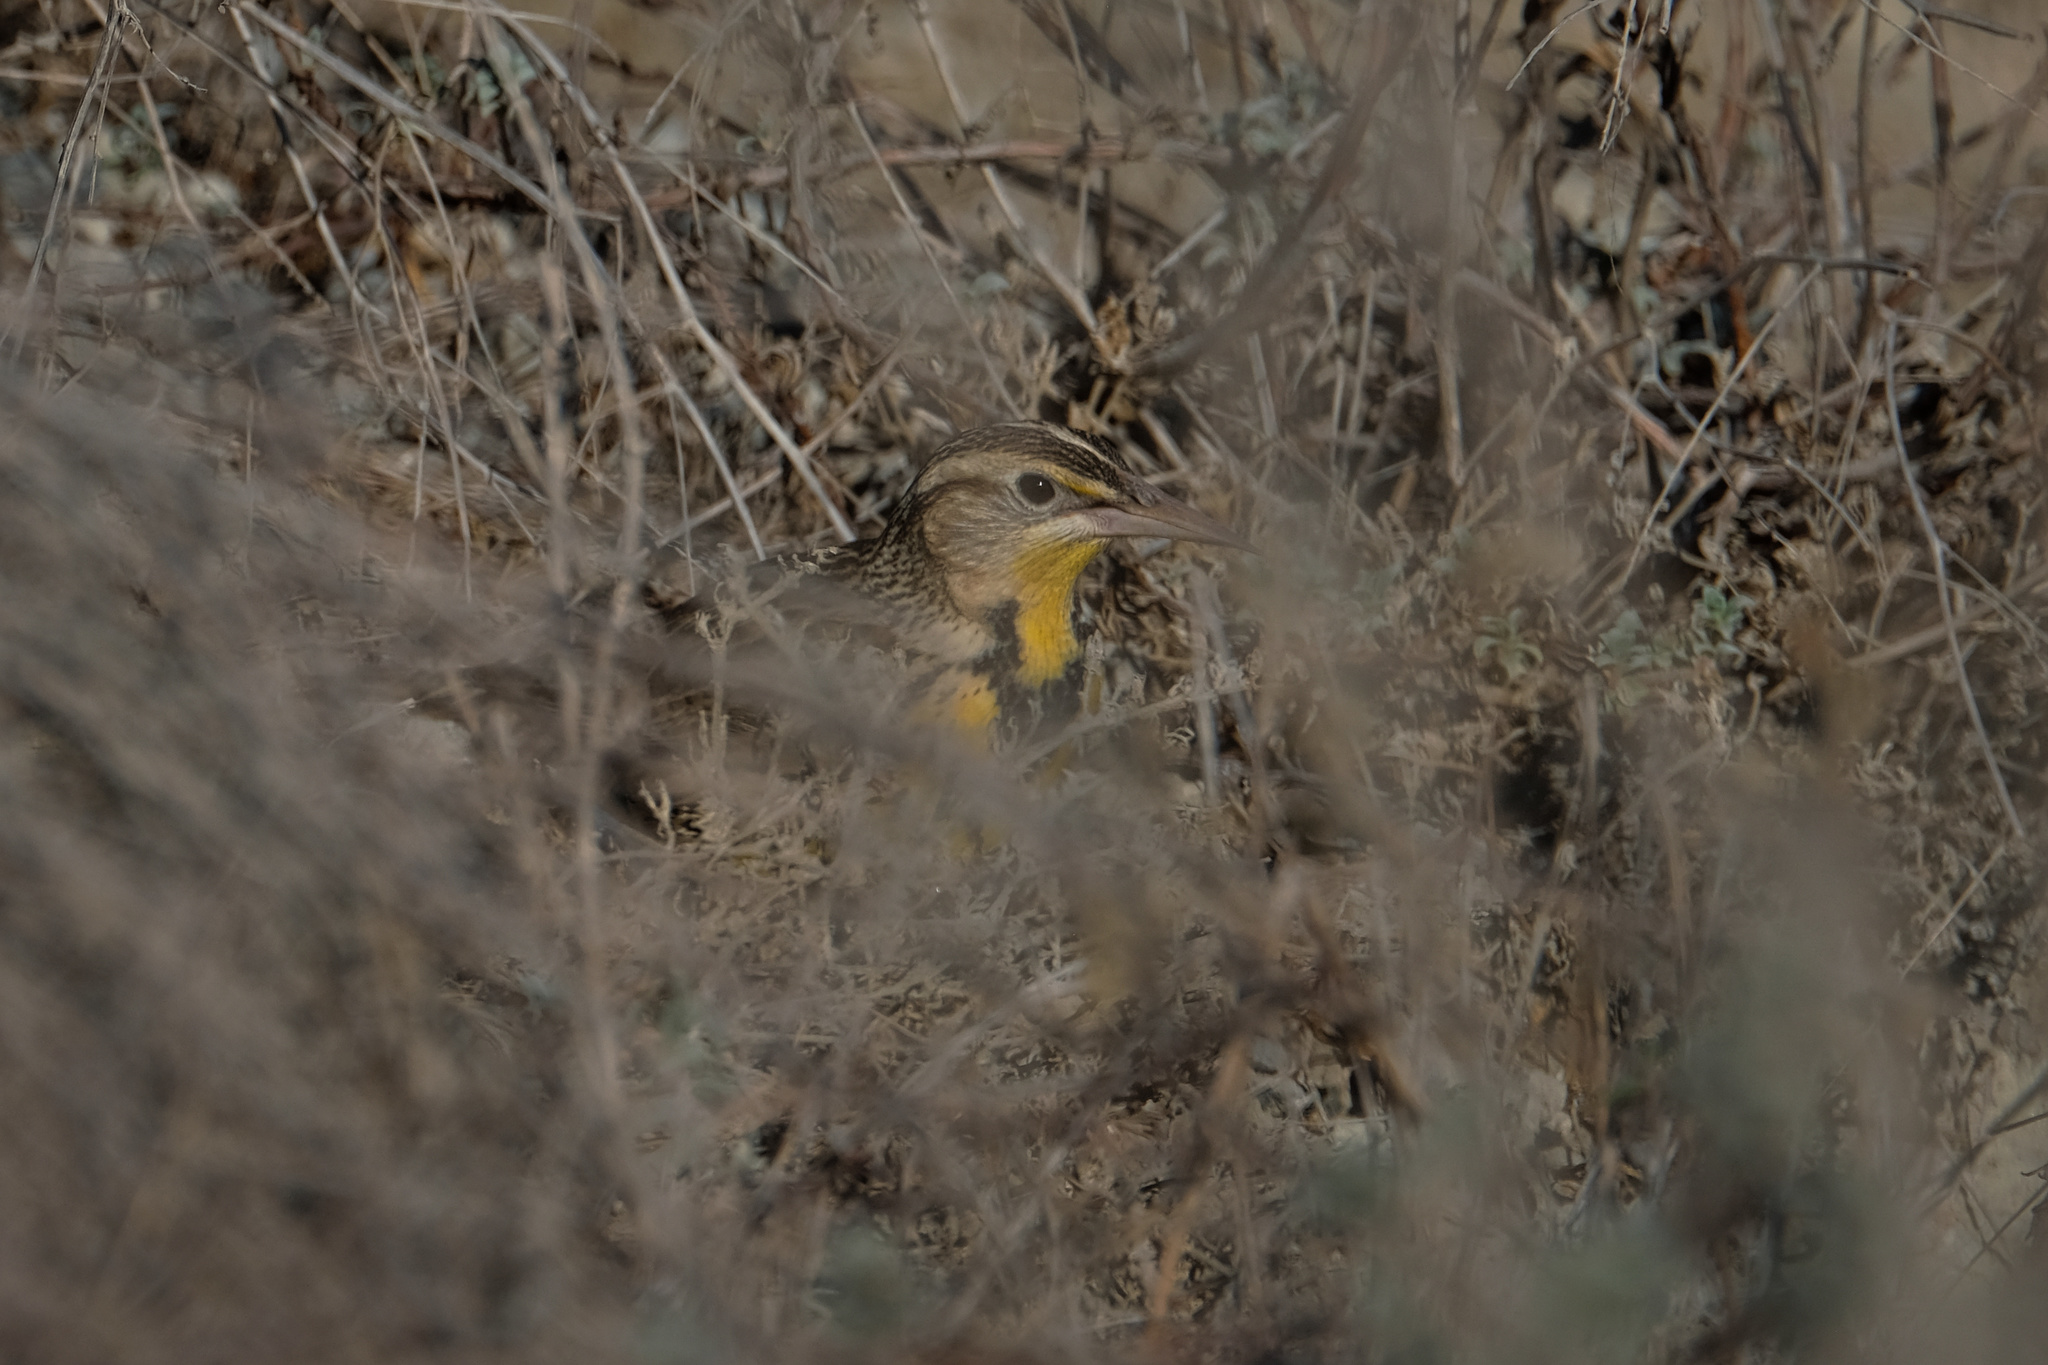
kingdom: Animalia
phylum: Chordata
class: Aves
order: Passeriformes
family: Icteridae
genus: Sturnella
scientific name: Sturnella neglecta
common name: Western meadowlark
